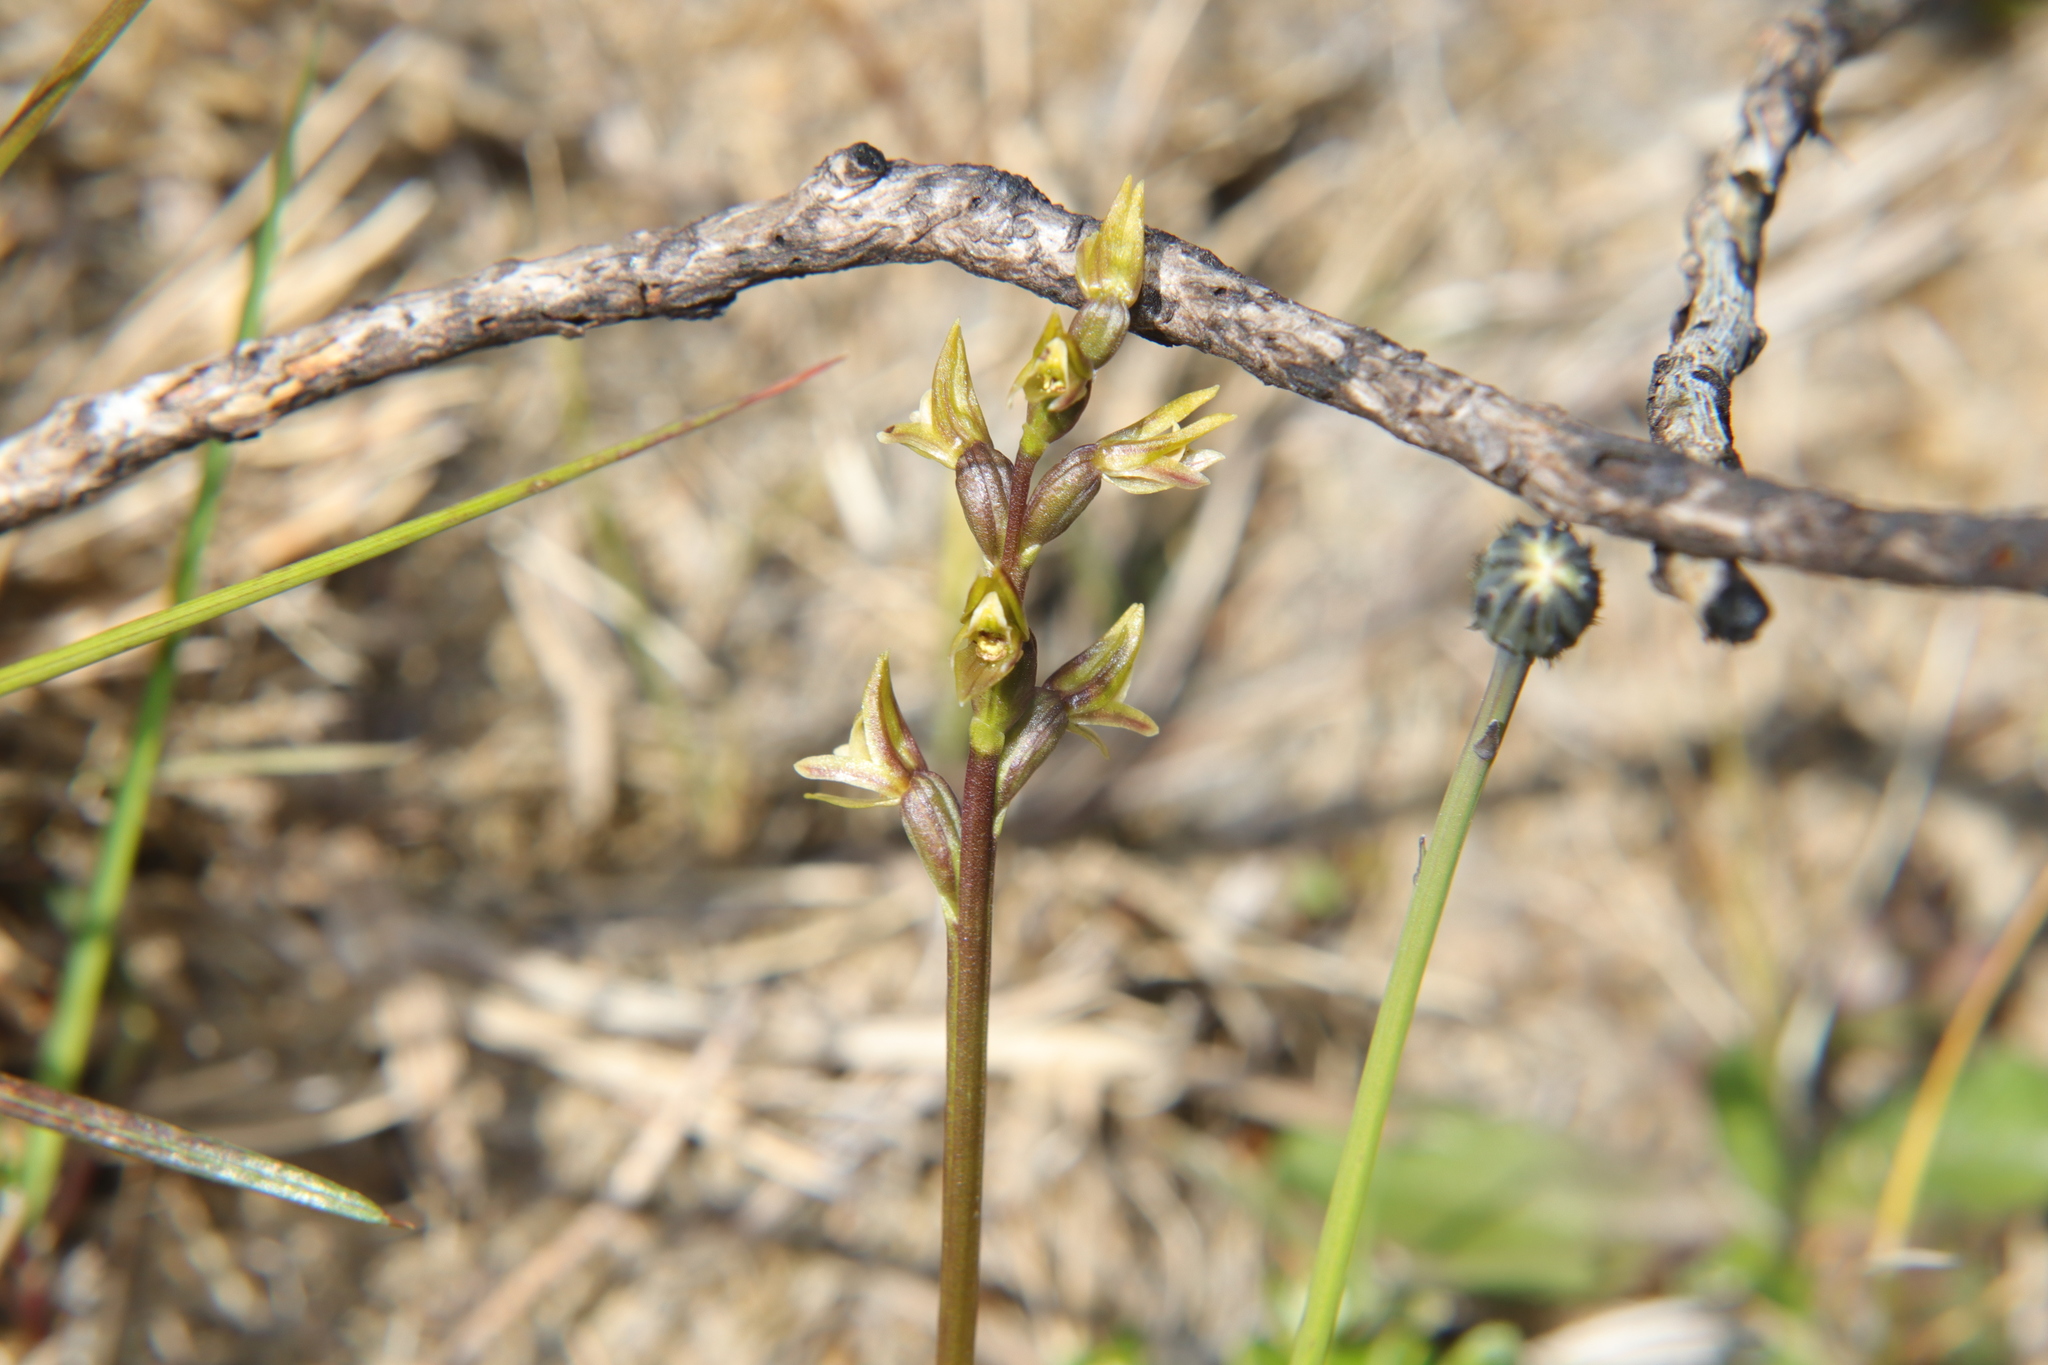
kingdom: Plantae
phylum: Tracheophyta
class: Liliopsida
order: Asparagales
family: Orchidaceae
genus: Prasophyllum
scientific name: Prasophyllum colensoi
